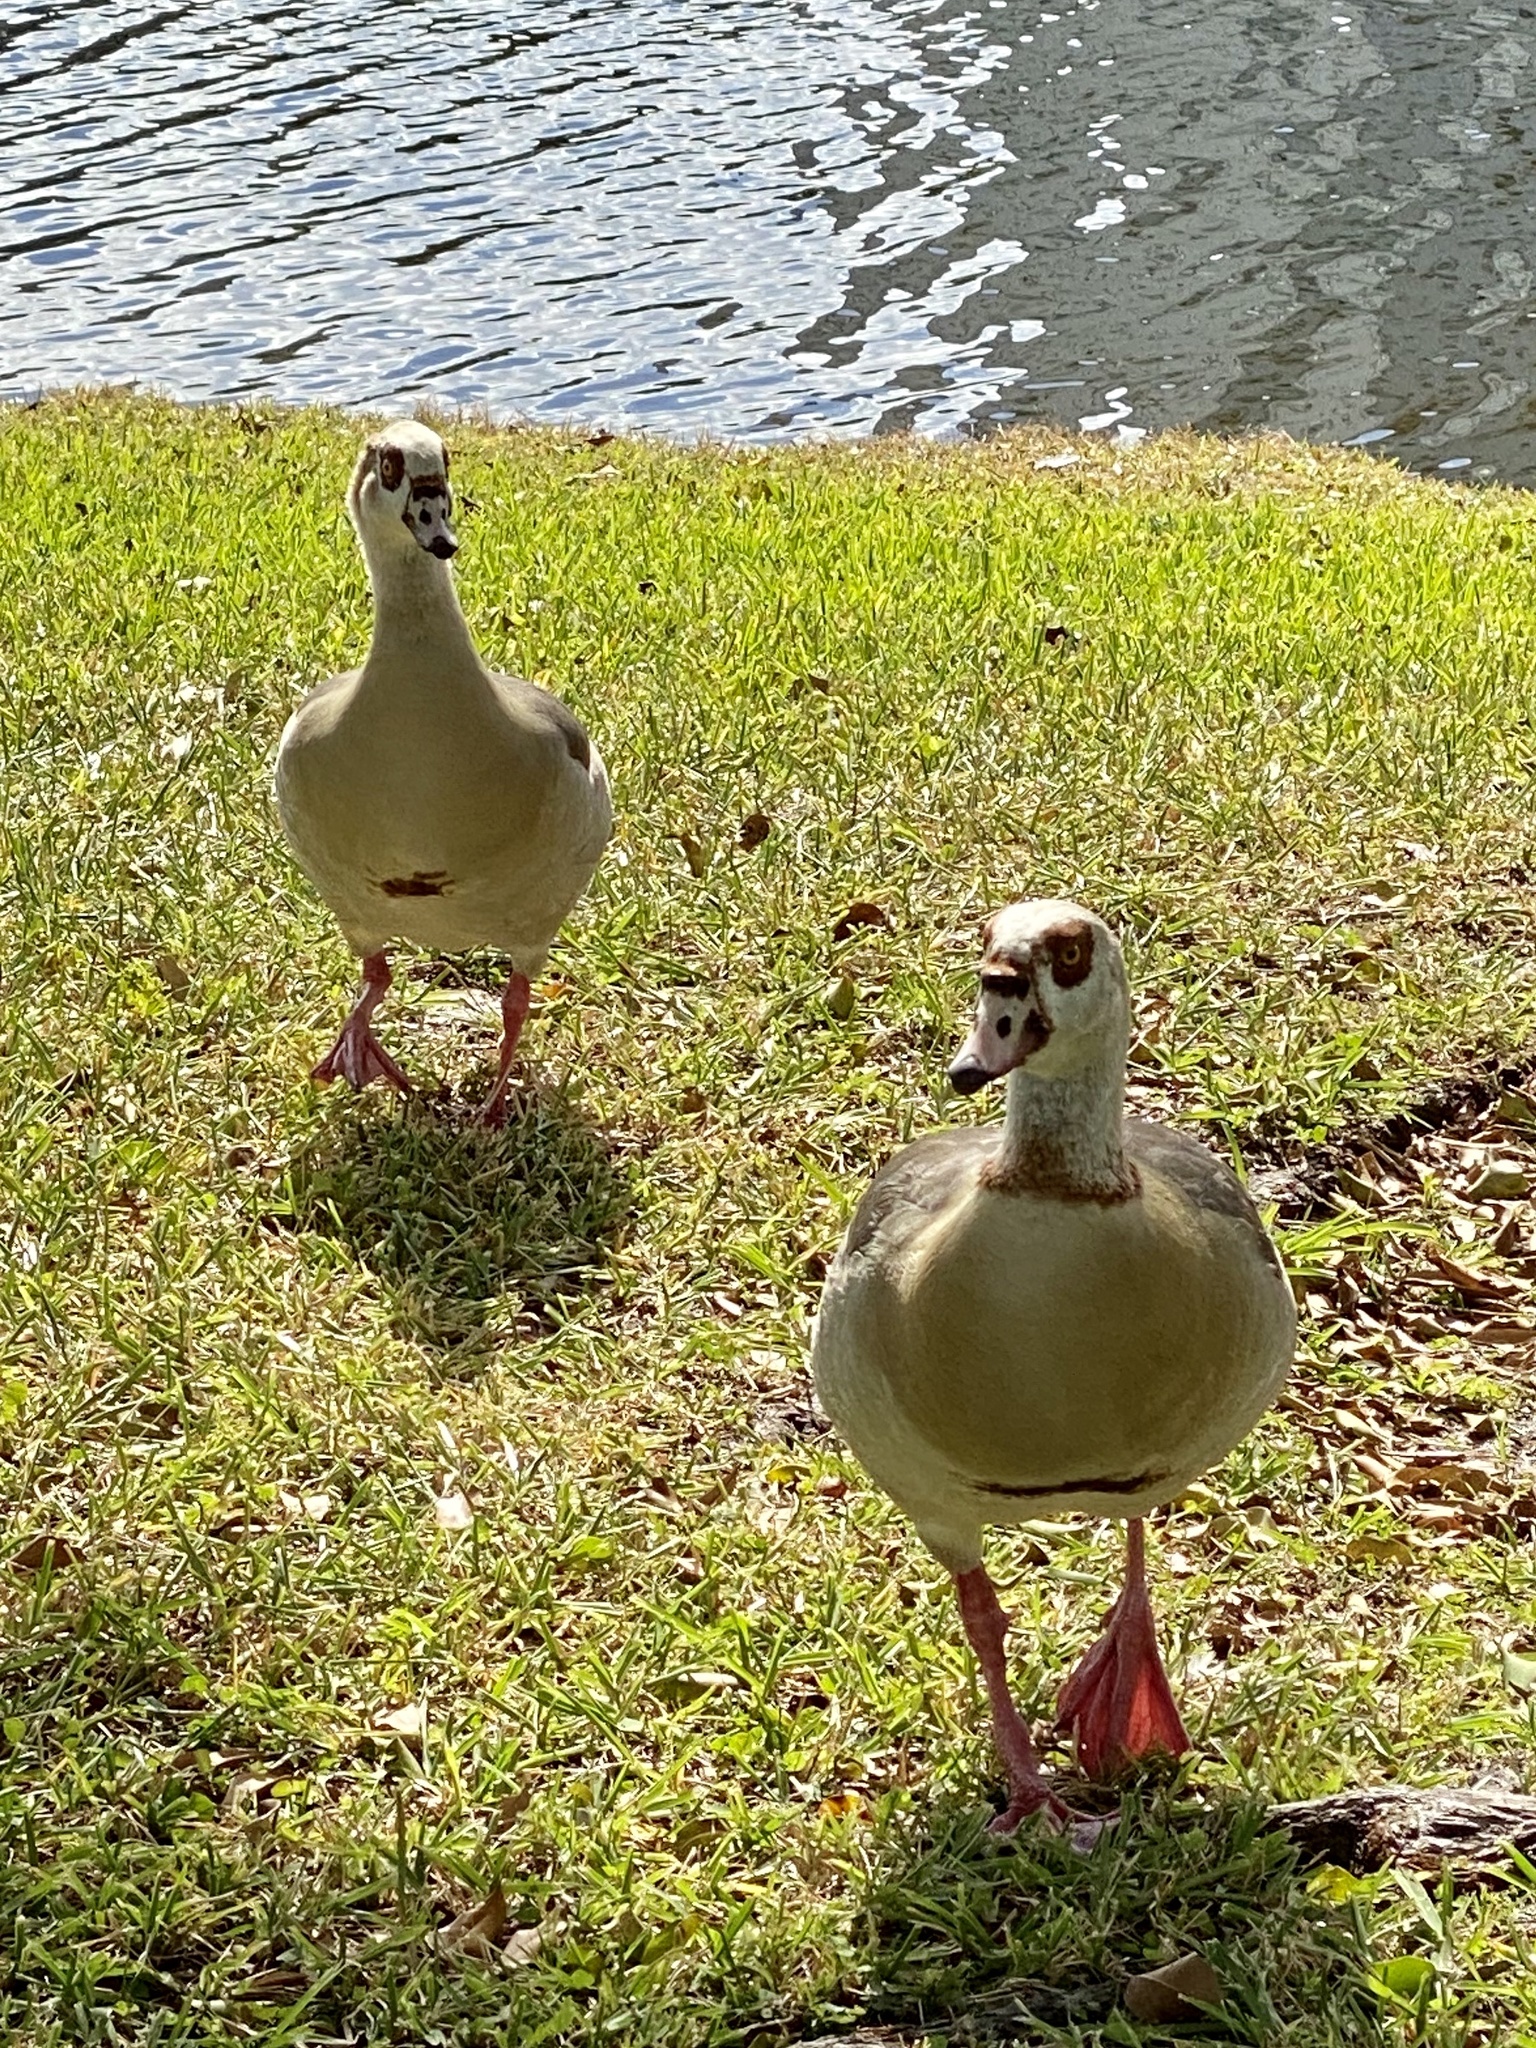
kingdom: Animalia
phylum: Chordata
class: Aves
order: Anseriformes
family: Anatidae
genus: Alopochen
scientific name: Alopochen aegyptiaca
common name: Egyptian goose
